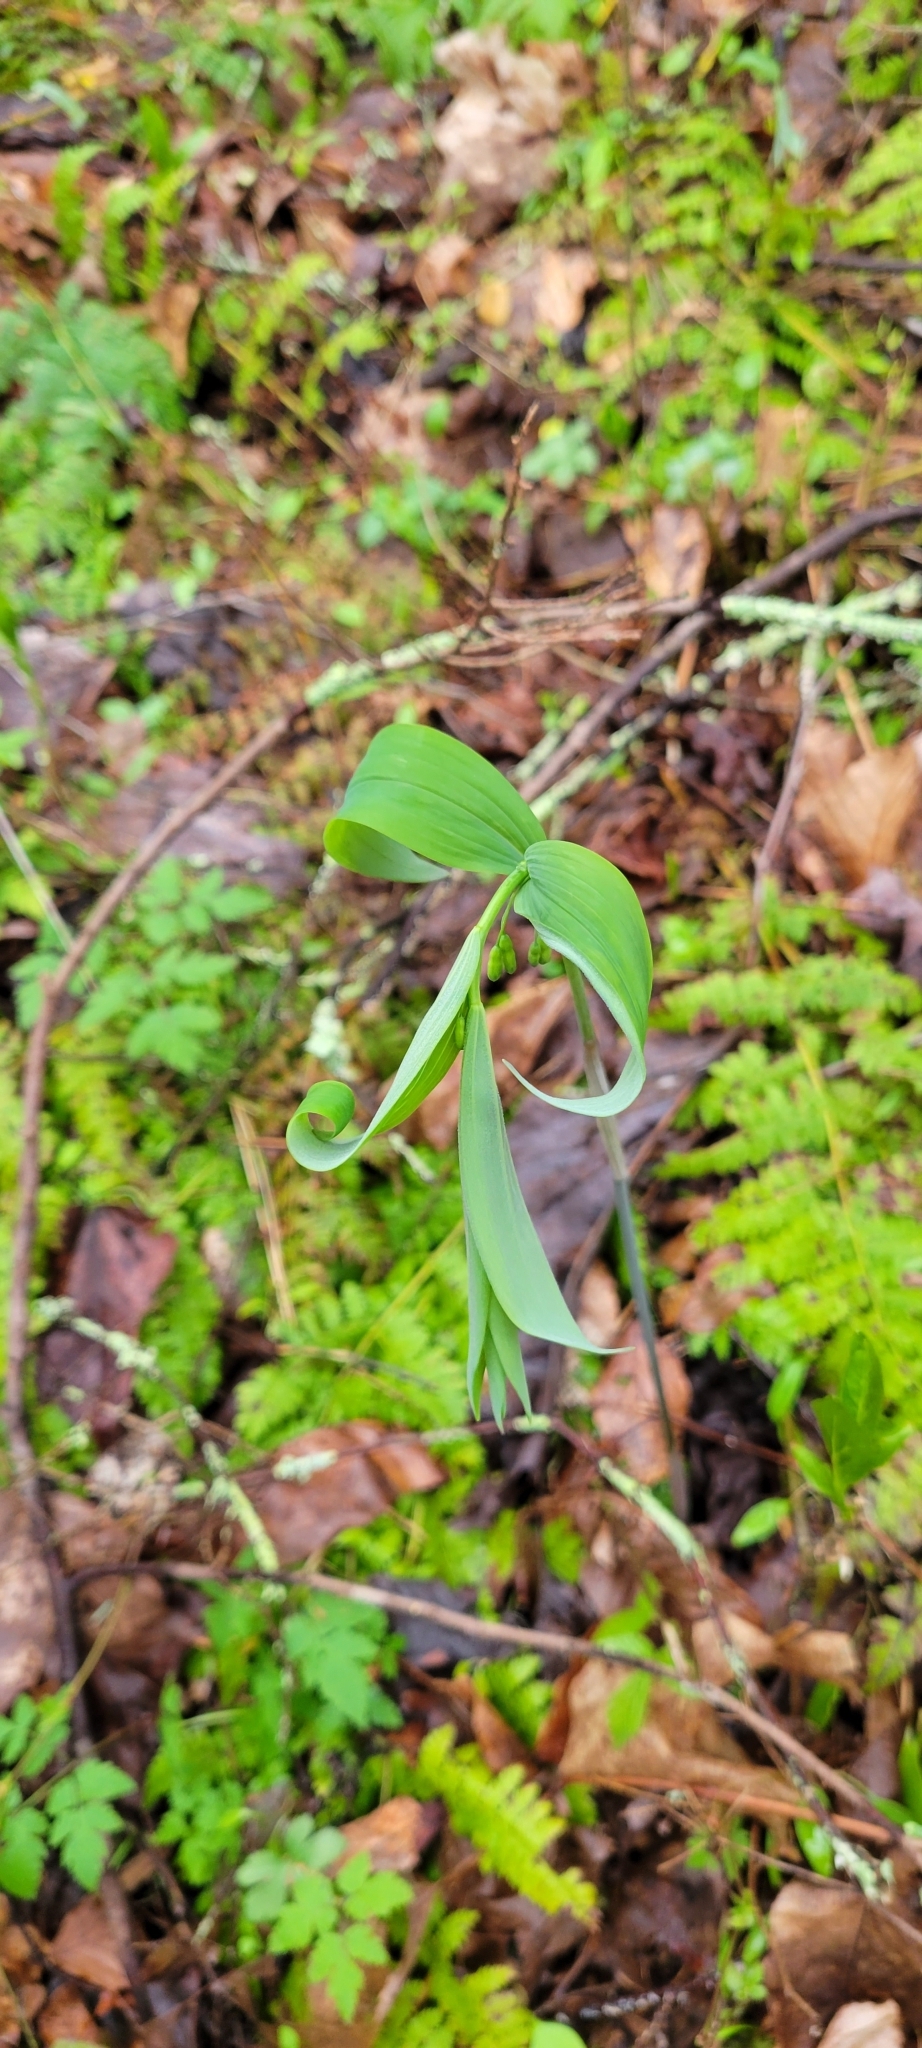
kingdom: Plantae
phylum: Tracheophyta
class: Liliopsida
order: Asparagales
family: Asparagaceae
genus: Polygonatum
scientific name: Polygonatum pubescens
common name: Downy solomon's seal
